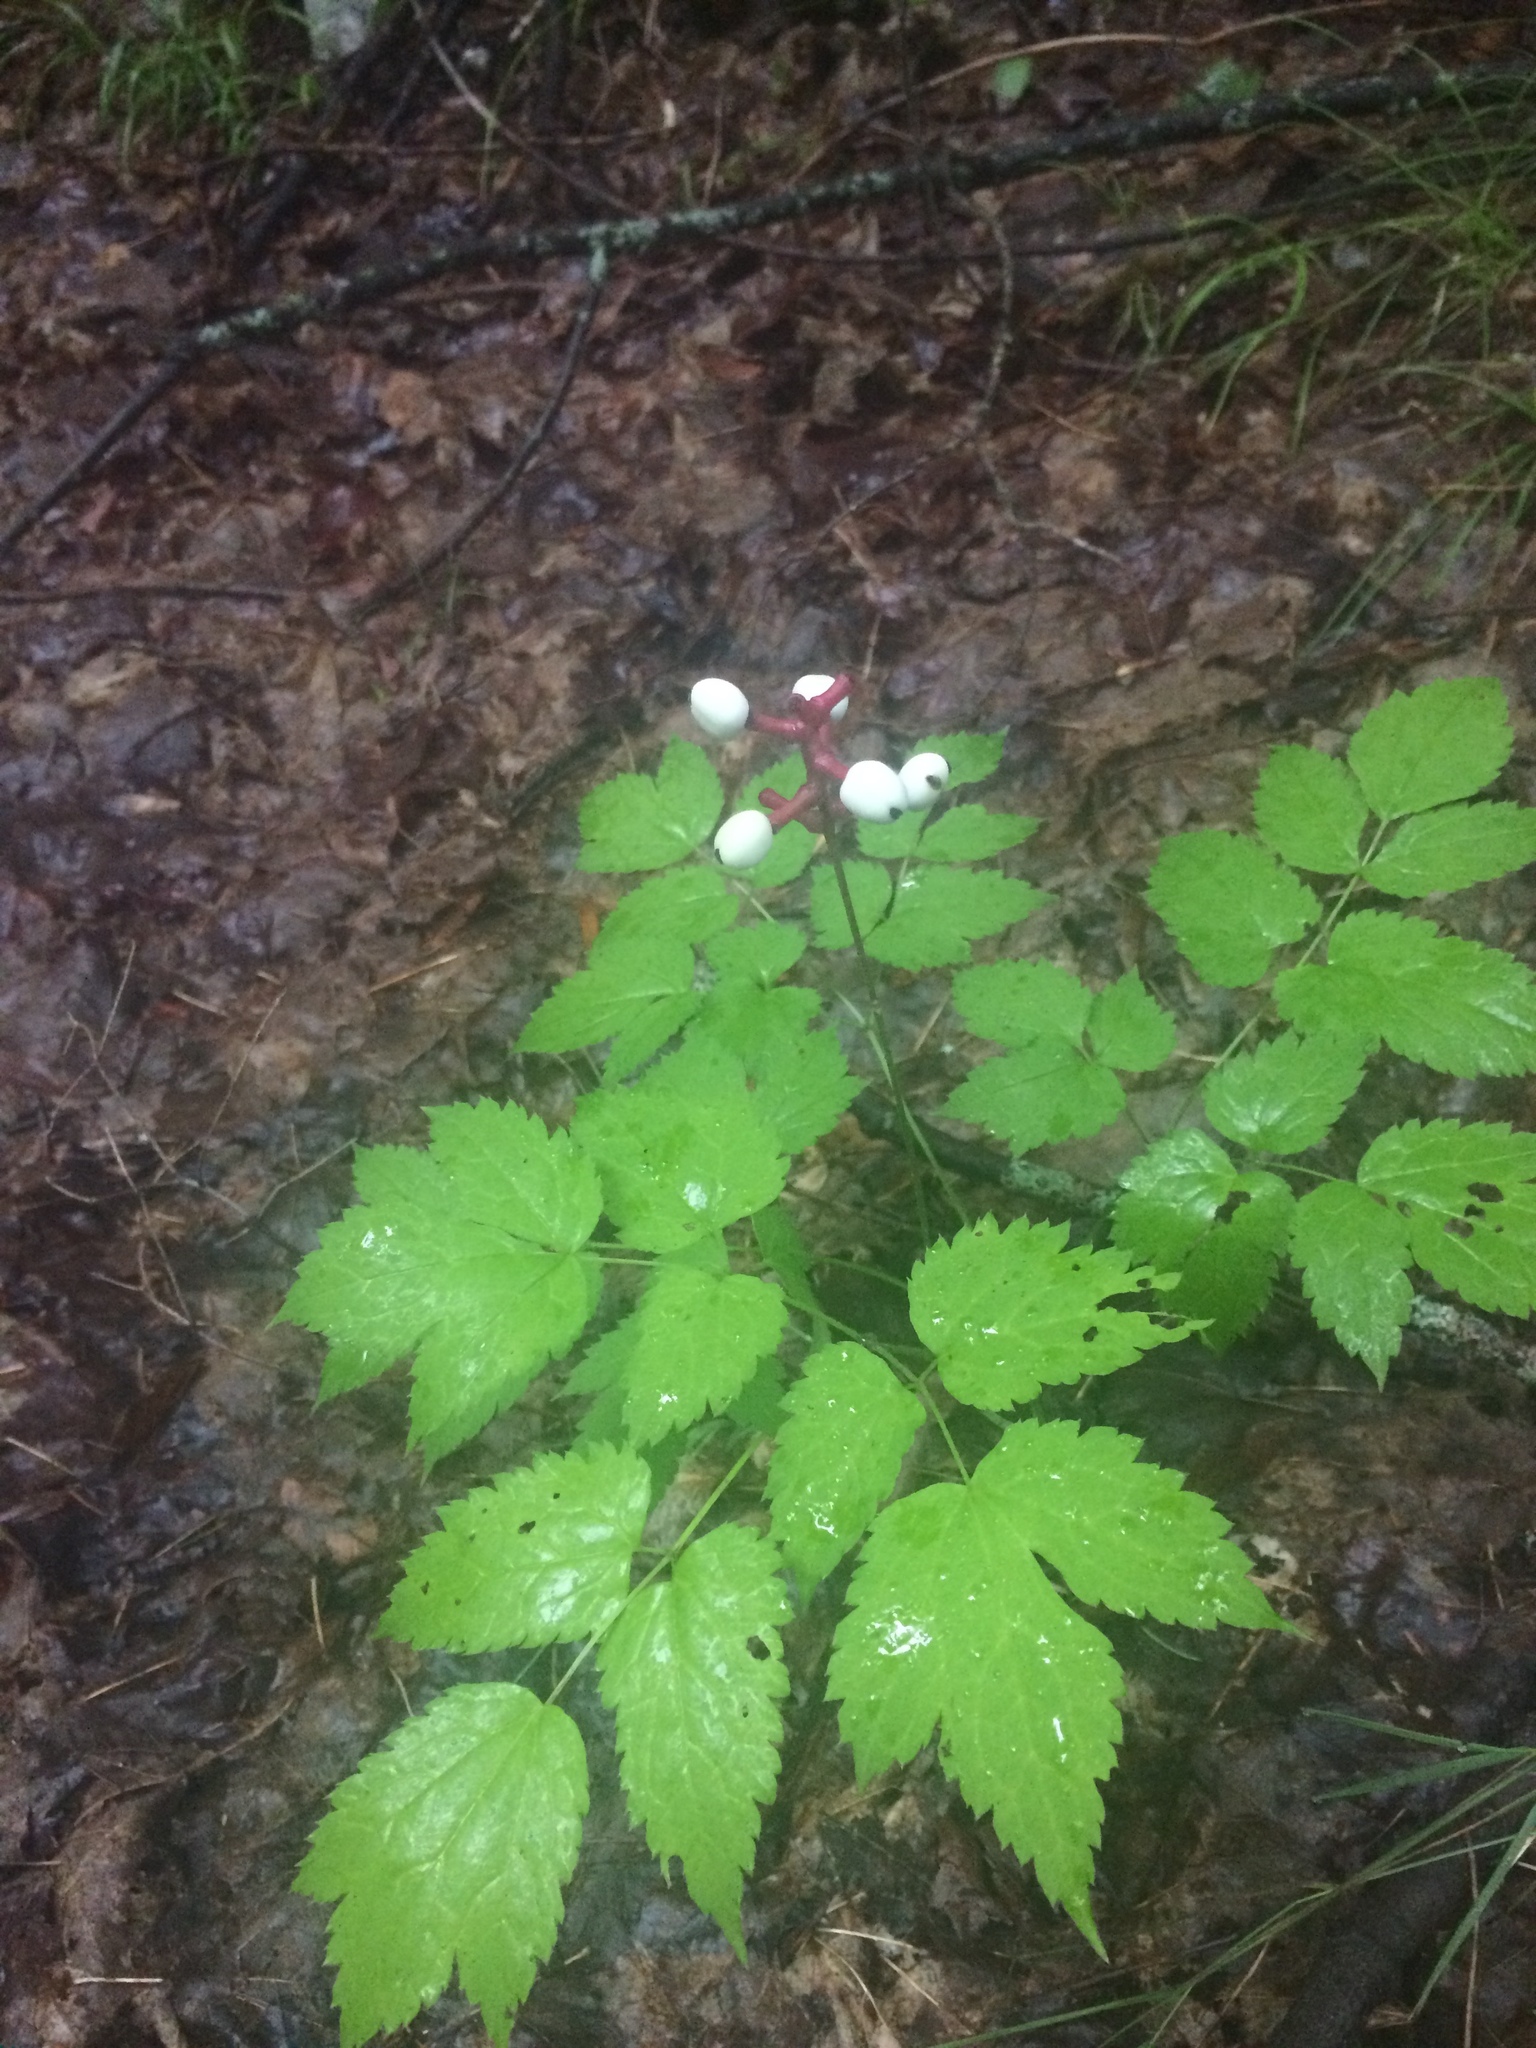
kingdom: Plantae
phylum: Tracheophyta
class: Magnoliopsida
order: Ranunculales
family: Ranunculaceae
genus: Actaea
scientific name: Actaea pachypoda
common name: Doll's-eyes
